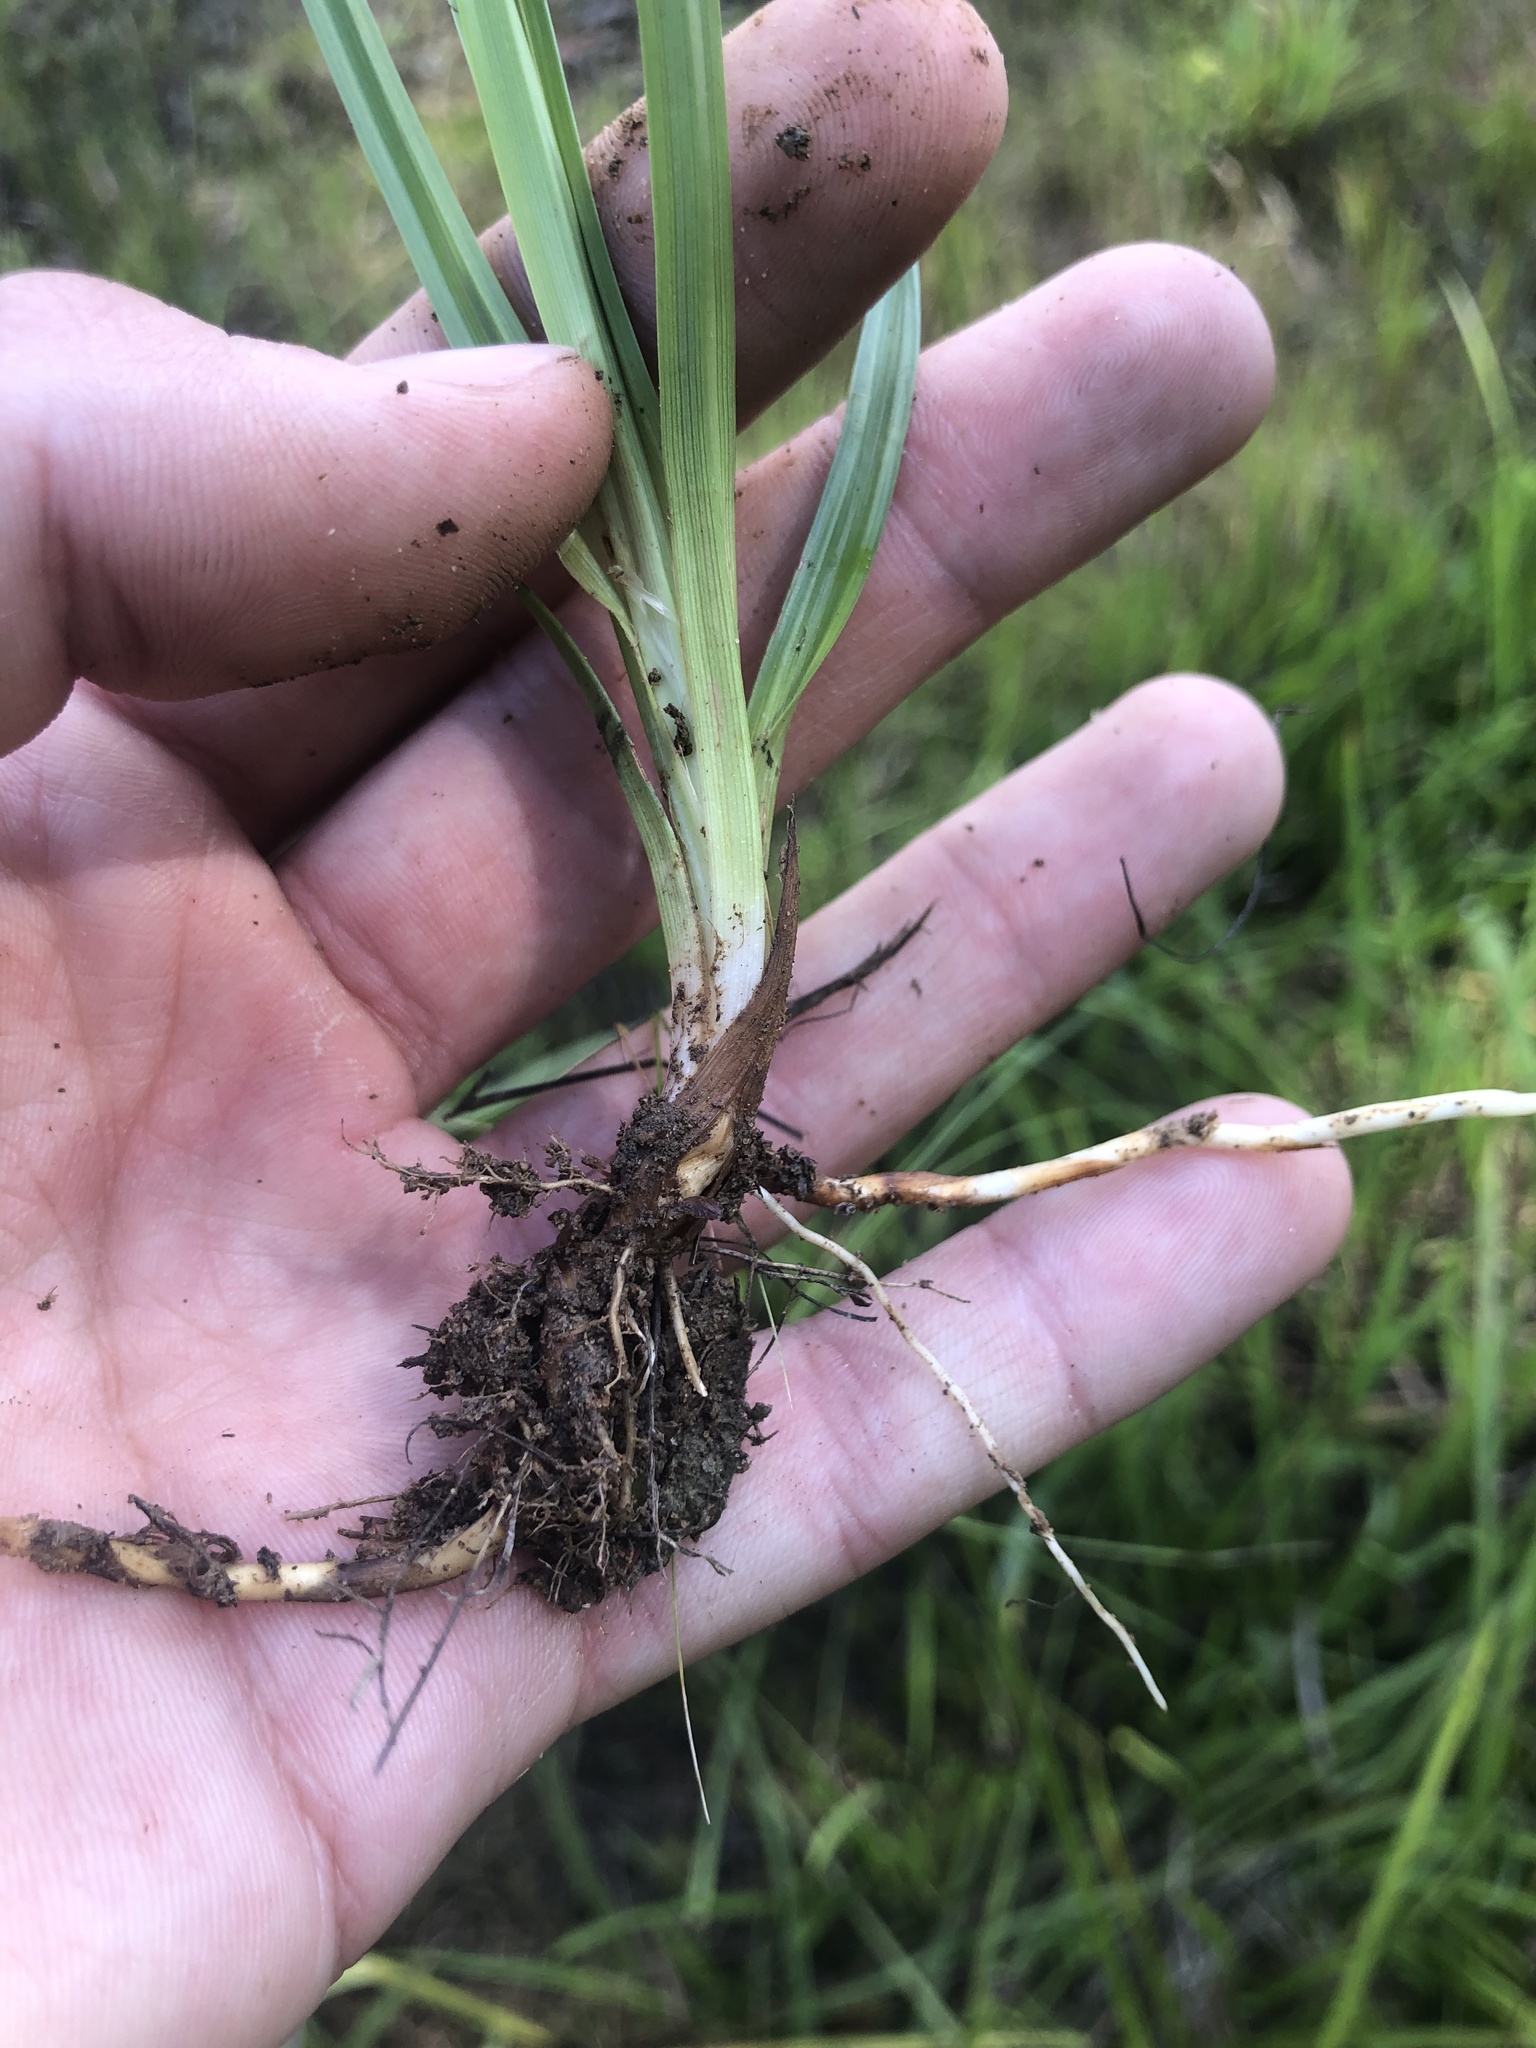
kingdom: Plantae
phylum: Tracheophyta
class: Liliopsida
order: Poales
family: Cyperaceae
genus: Carex
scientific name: Carex microdonta
